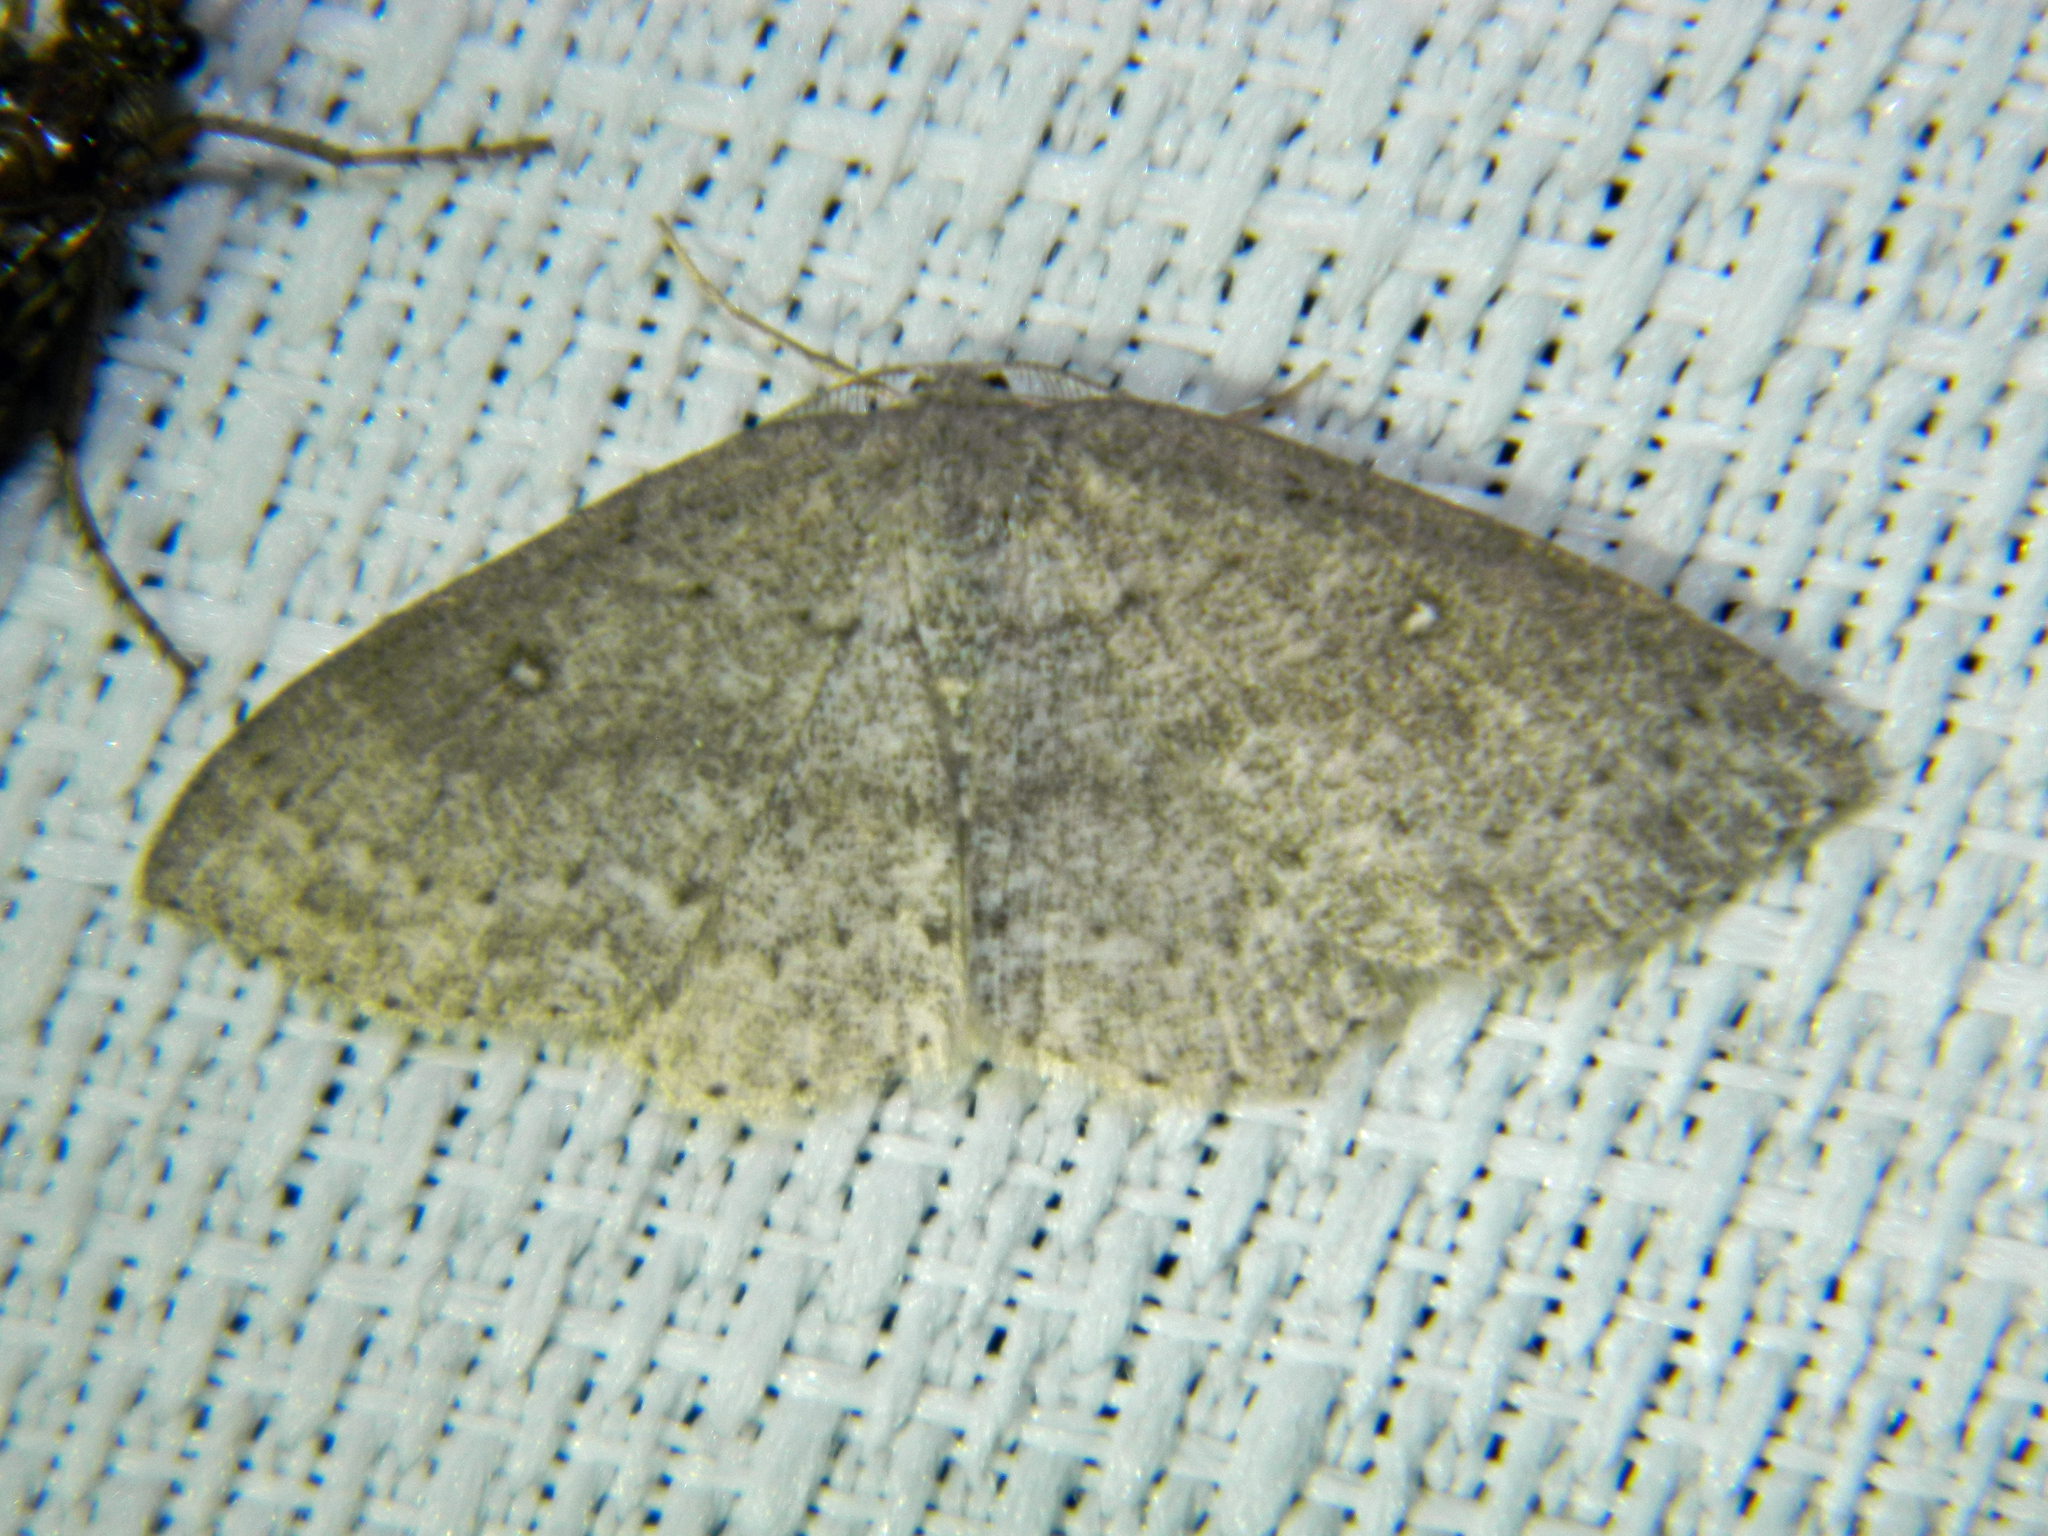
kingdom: Animalia
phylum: Arthropoda
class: Insecta
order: Lepidoptera
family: Geometridae
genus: Cyclophora
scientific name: Cyclophora pendulinaria
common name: Sweet fern geometer
